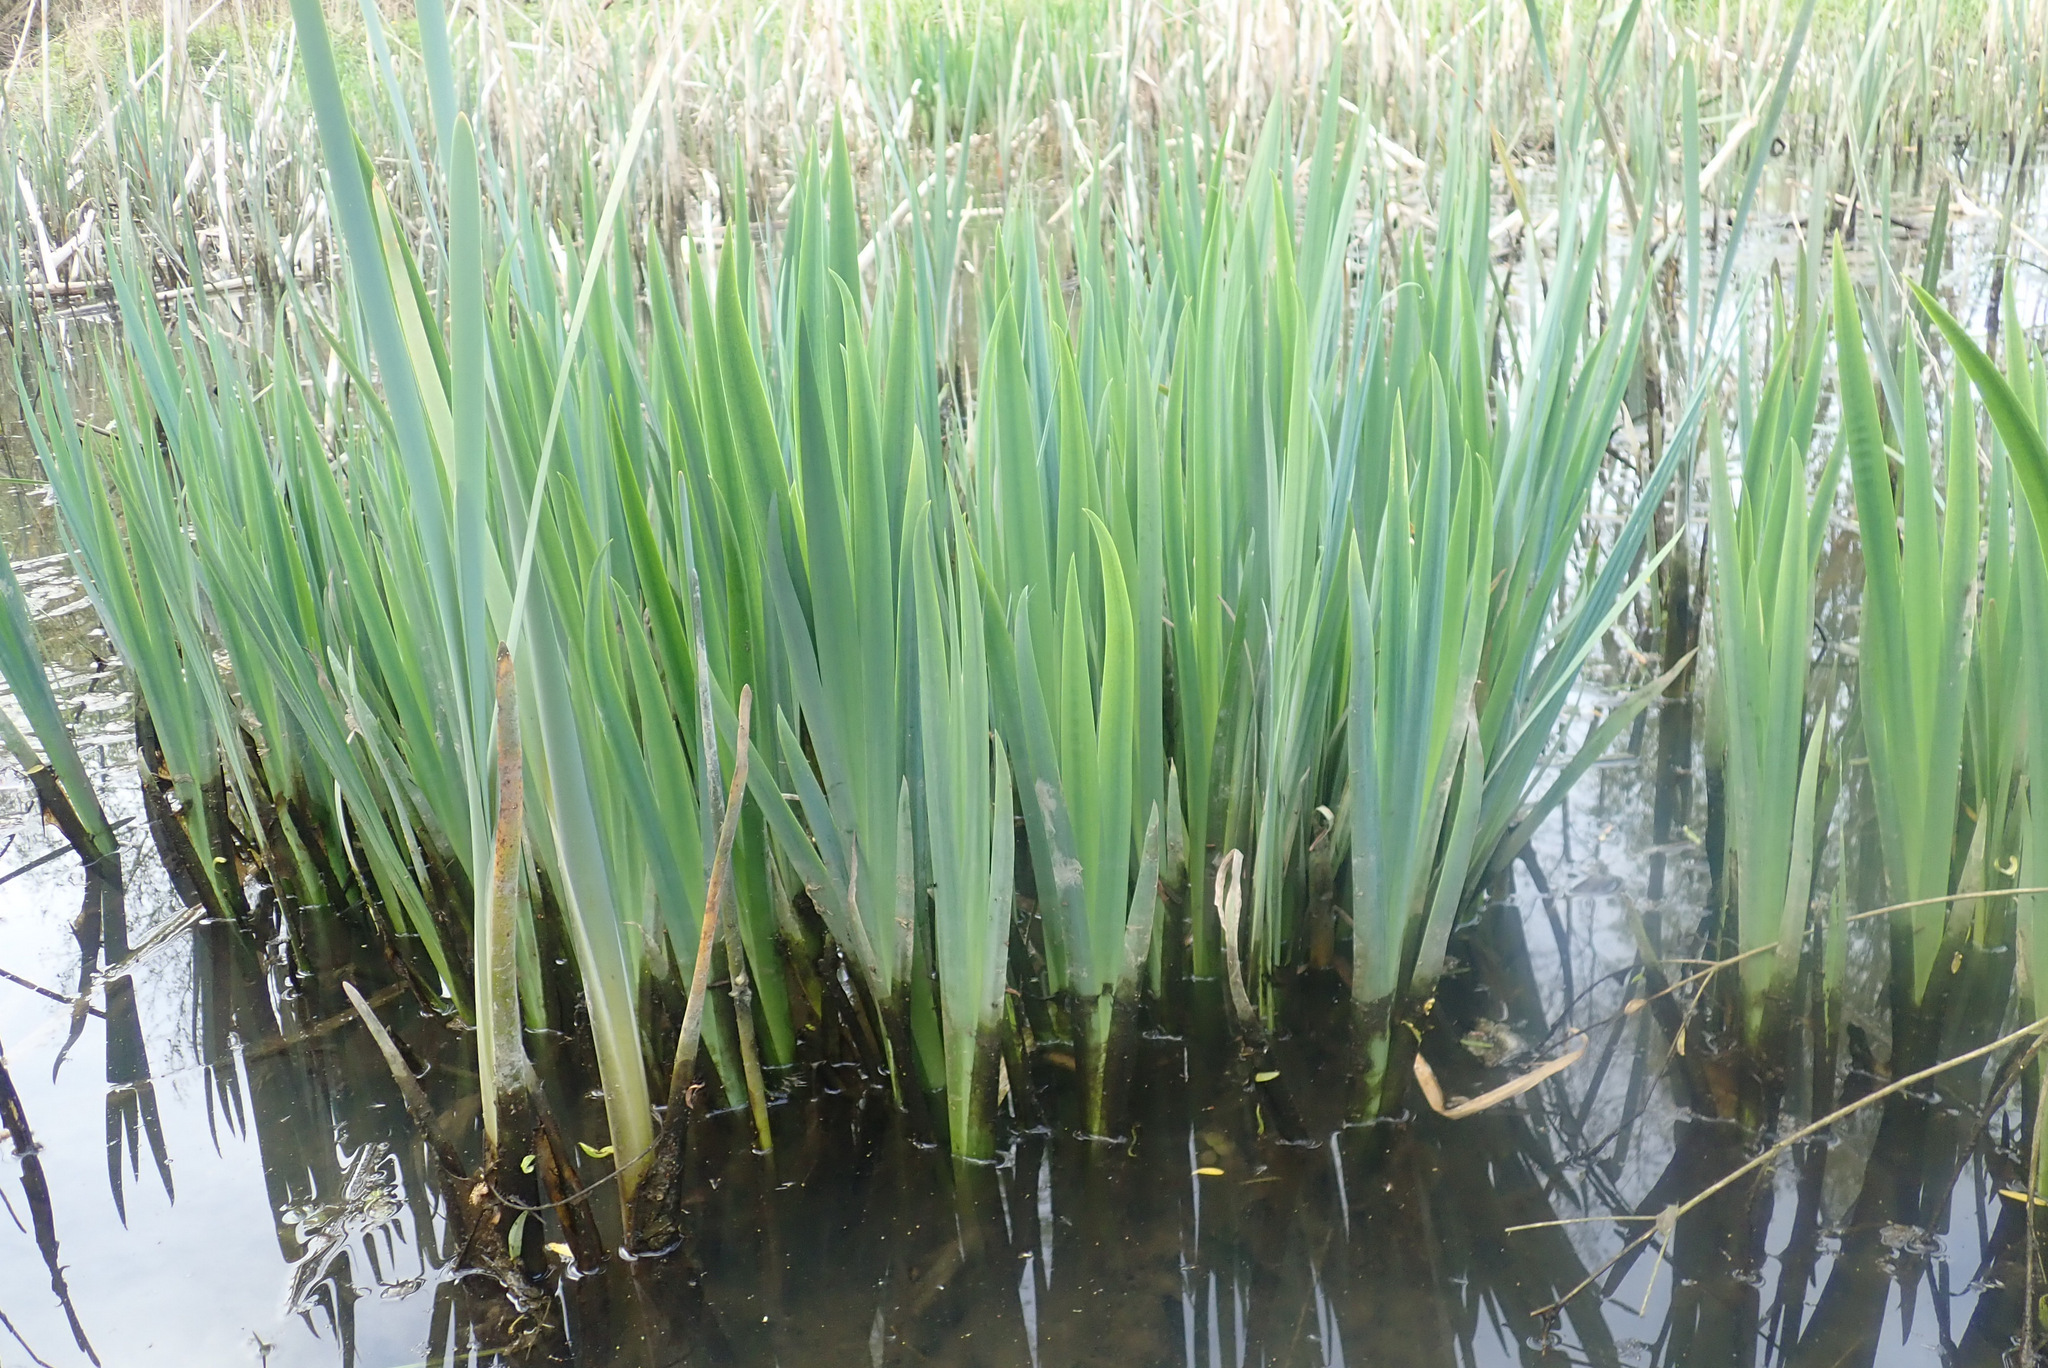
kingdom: Plantae
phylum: Tracheophyta
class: Liliopsida
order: Asparagales
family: Iridaceae
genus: Iris
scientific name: Iris pseudacorus
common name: Yellow flag
